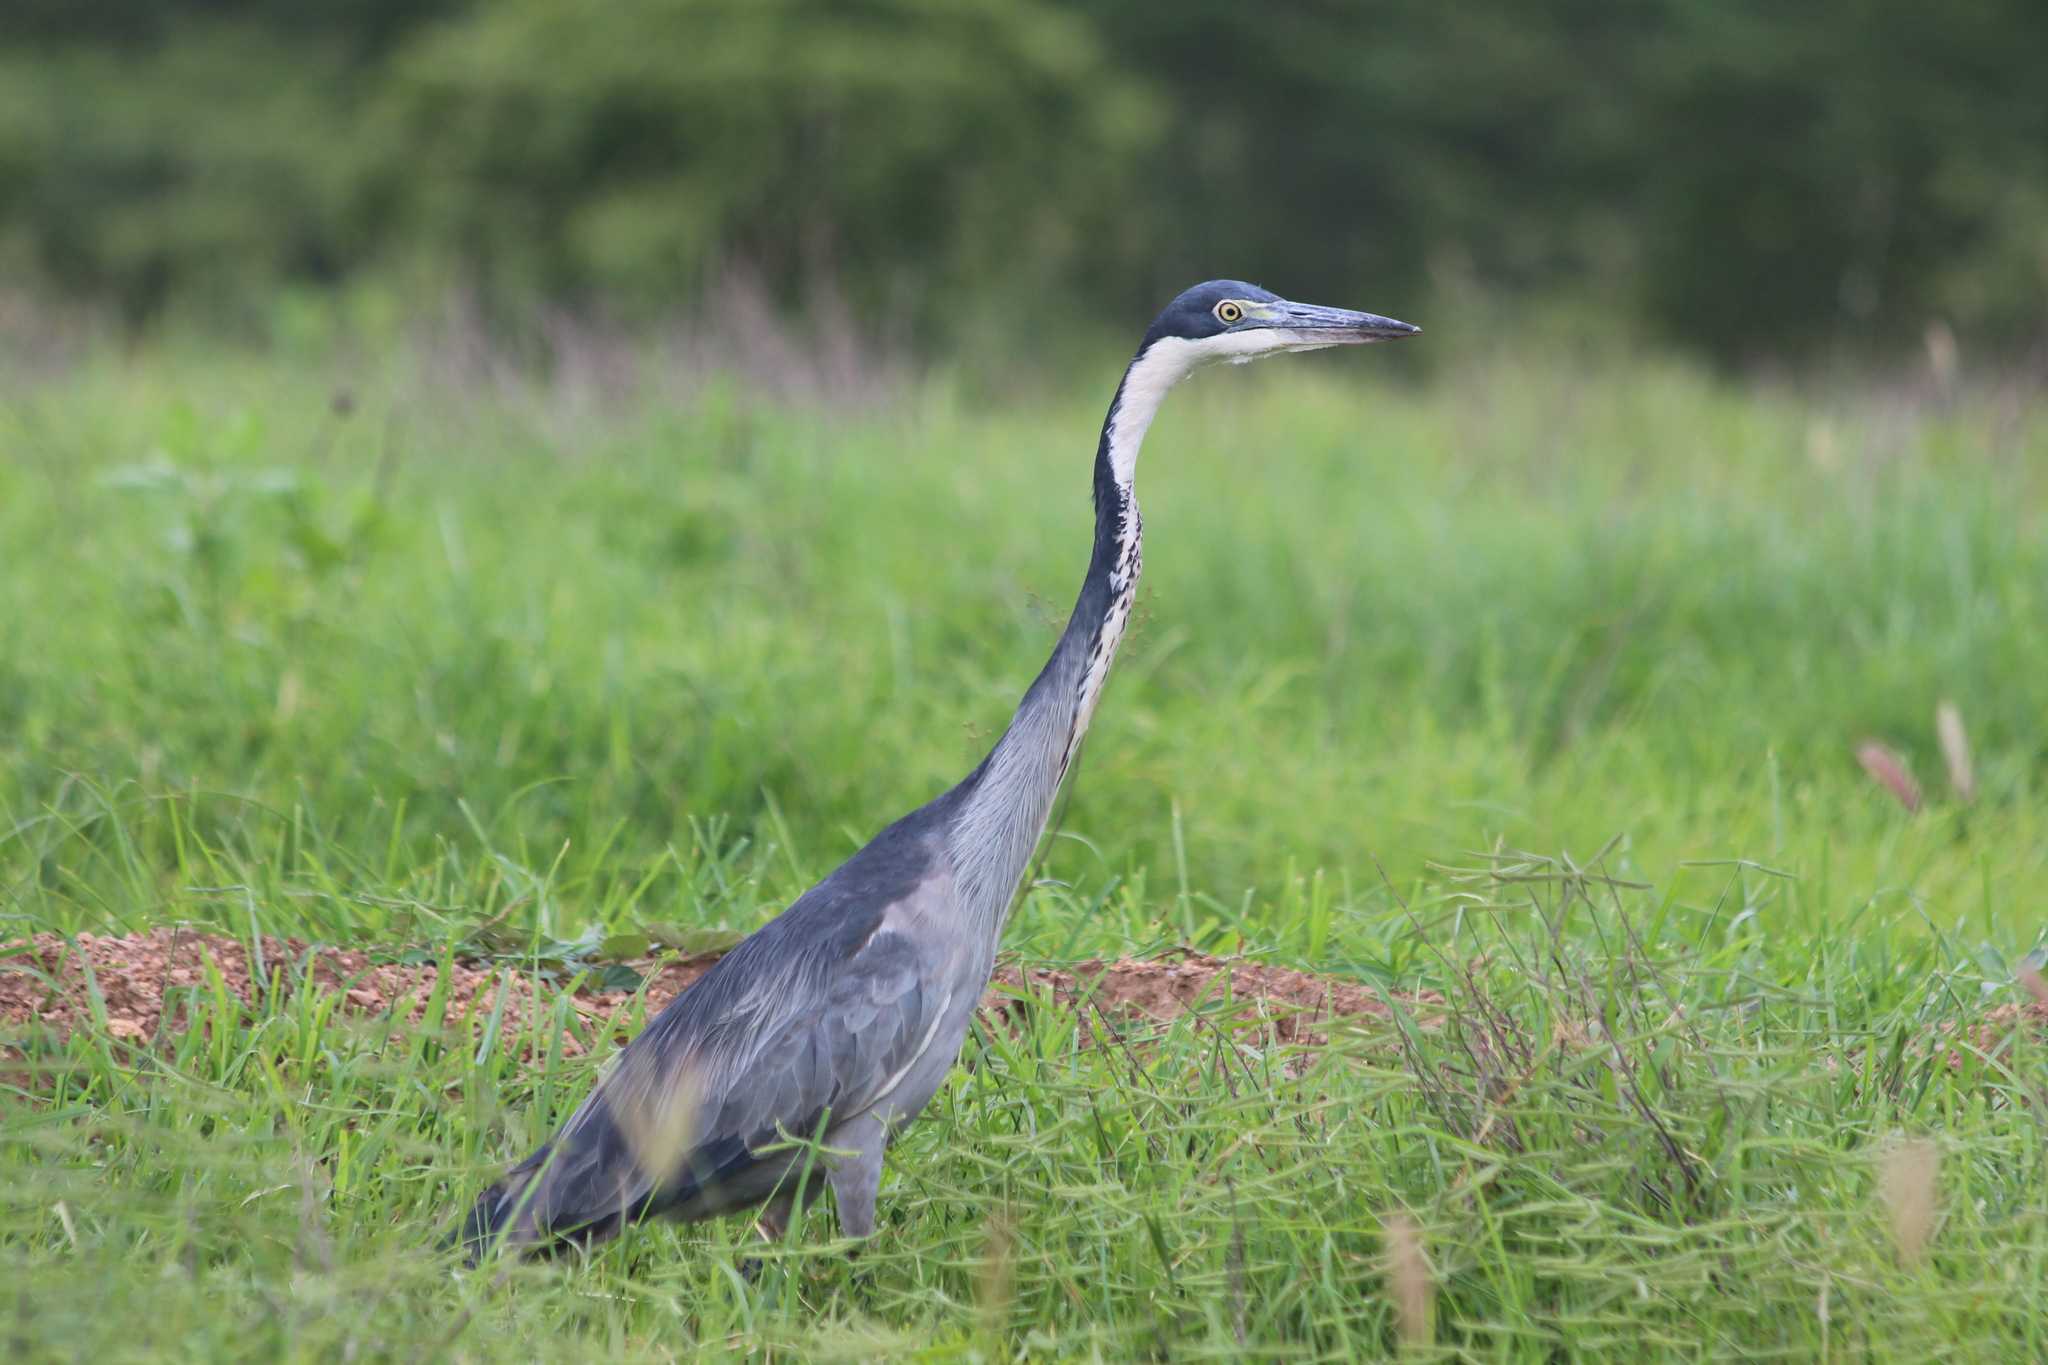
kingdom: Animalia
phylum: Chordata
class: Aves
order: Pelecaniformes
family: Ardeidae
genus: Ardea
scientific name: Ardea melanocephala
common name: Black-headed heron
